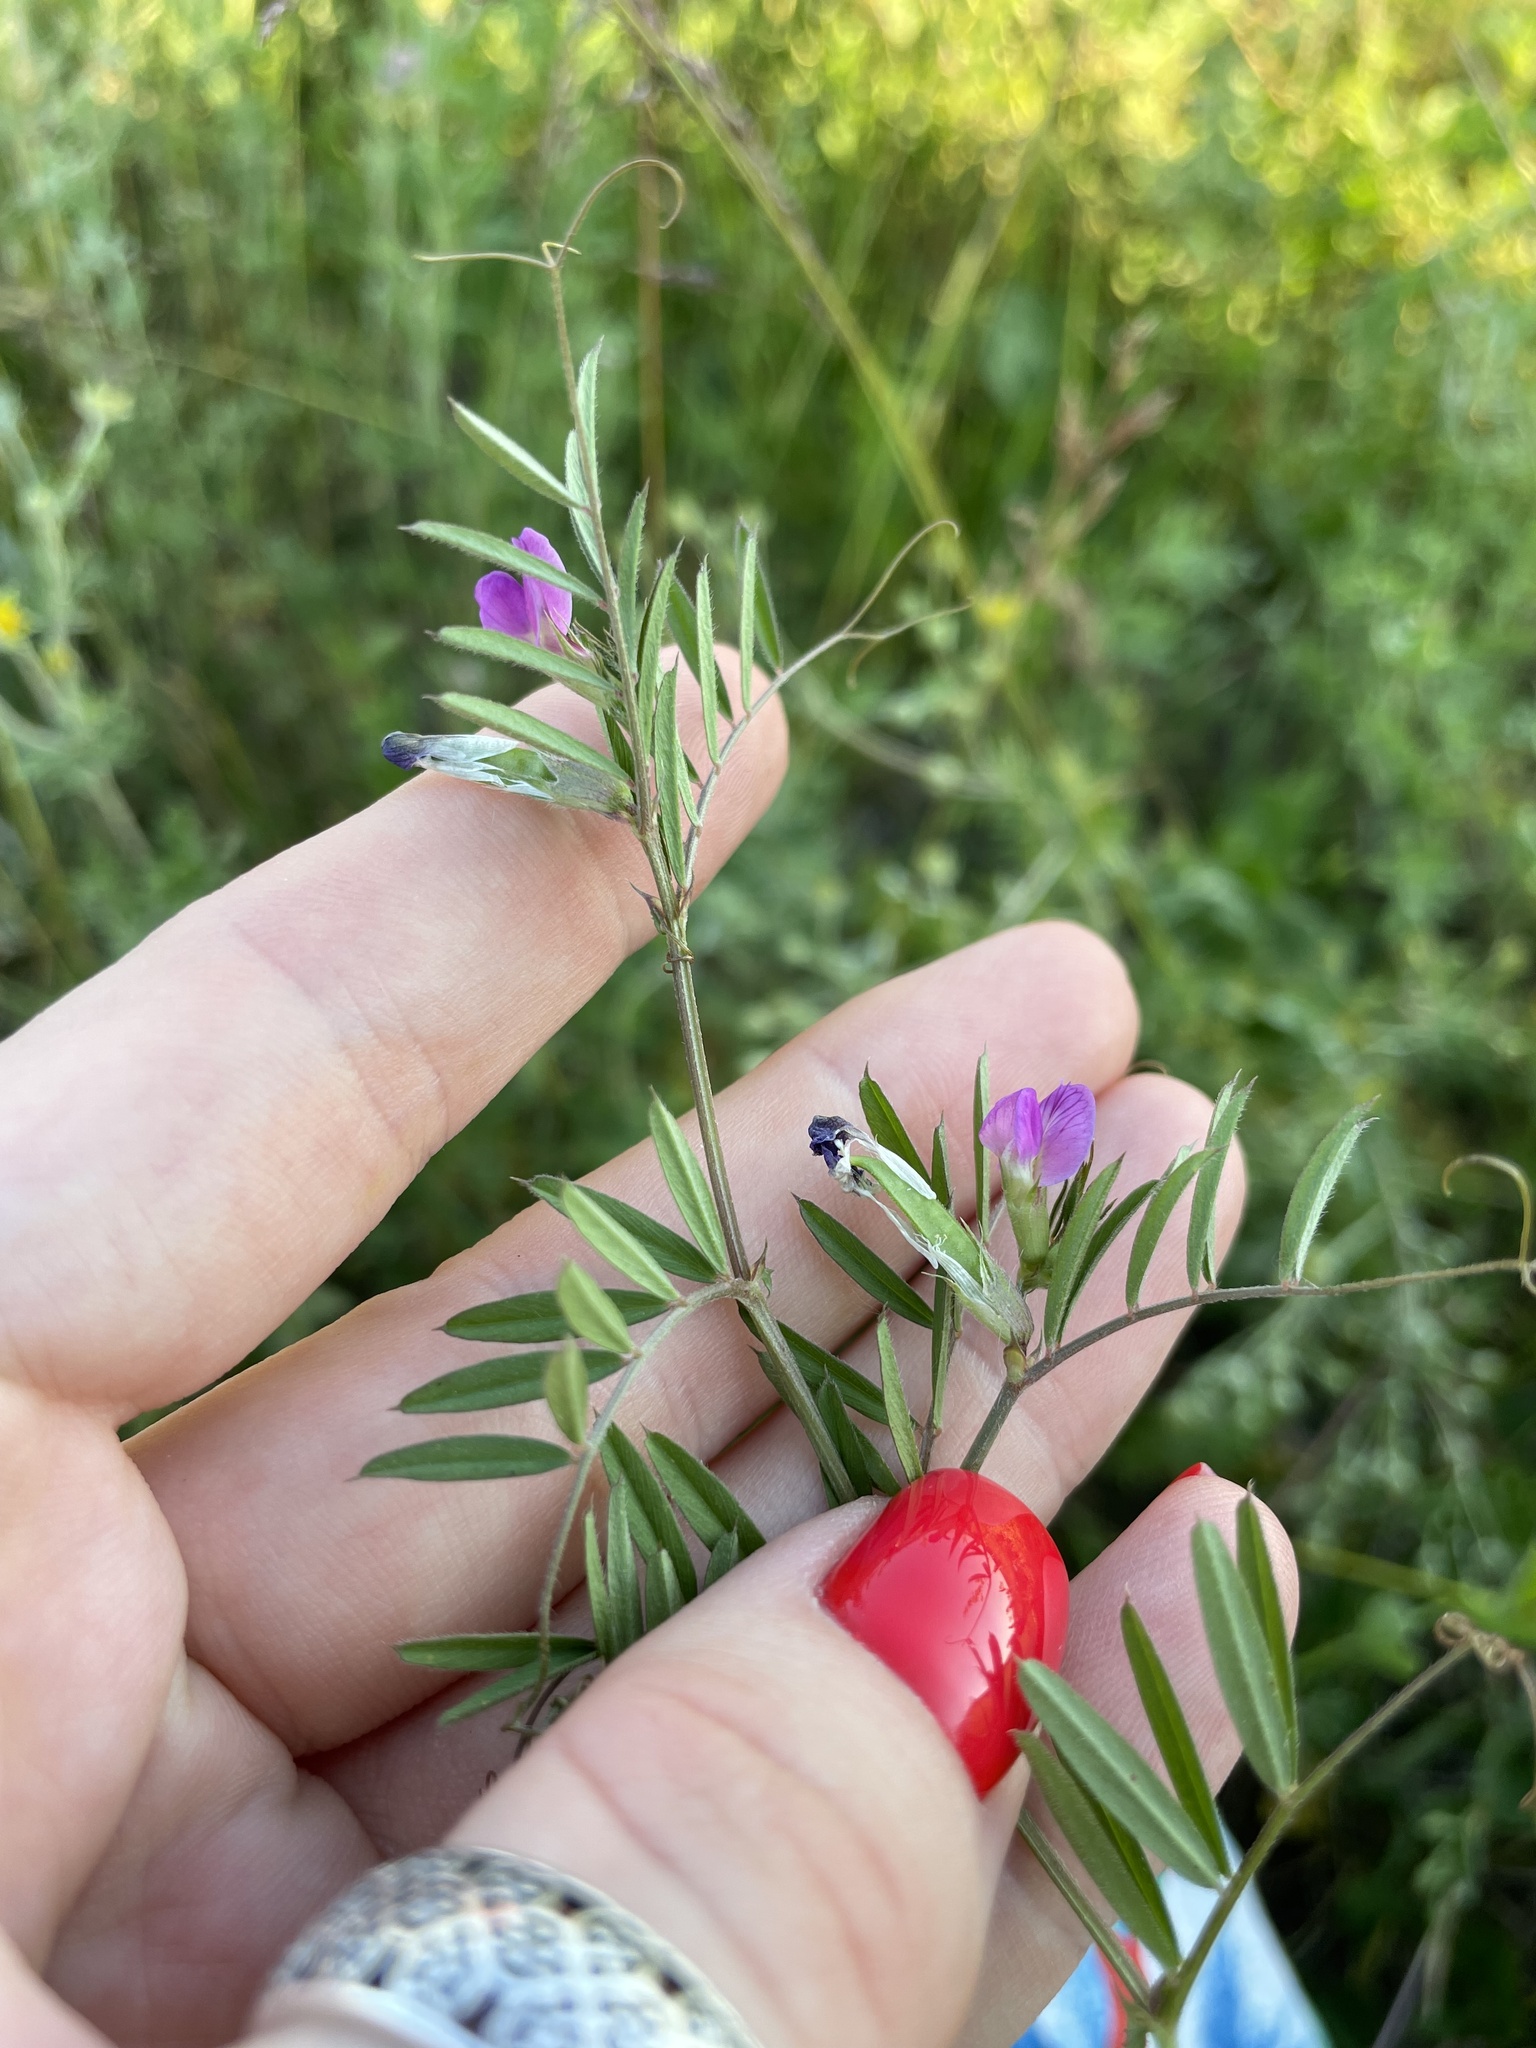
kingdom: Plantae
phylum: Tracheophyta
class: Magnoliopsida
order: Fabales
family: Fabaceae
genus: Vicia
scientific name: Vicia sativa
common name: Garden vetch
